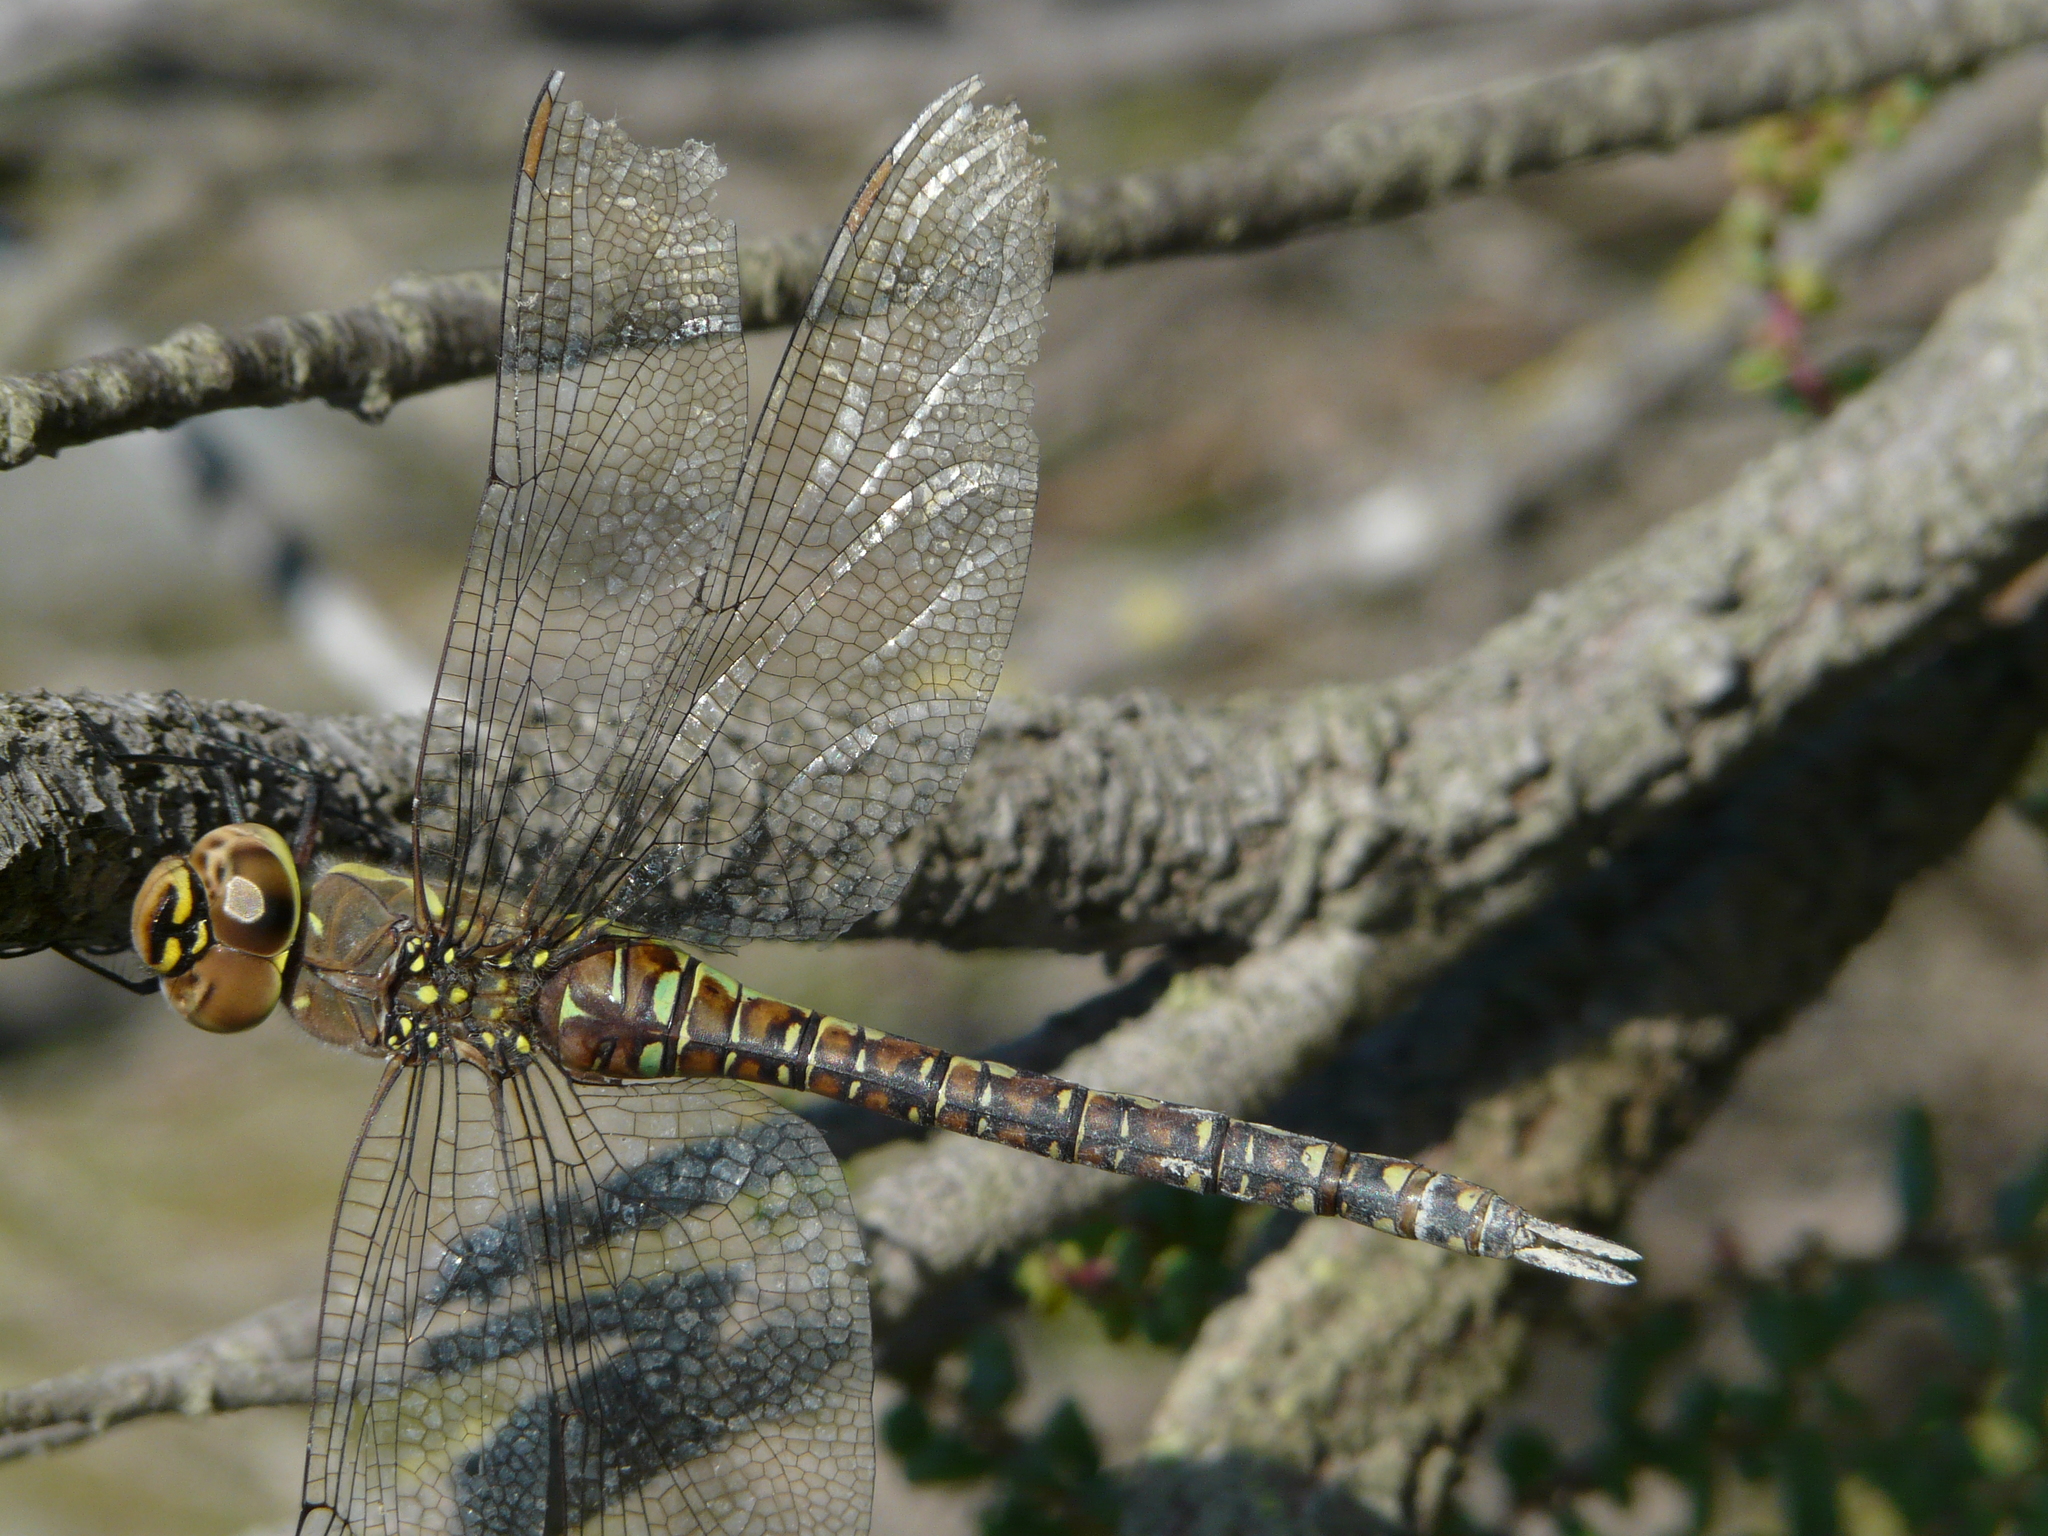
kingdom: Animalia
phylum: Arthropoda
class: Insecta
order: Odonata
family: Aeshnidae
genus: Aeshna
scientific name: Aeshna mixta
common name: Migrant hawker
